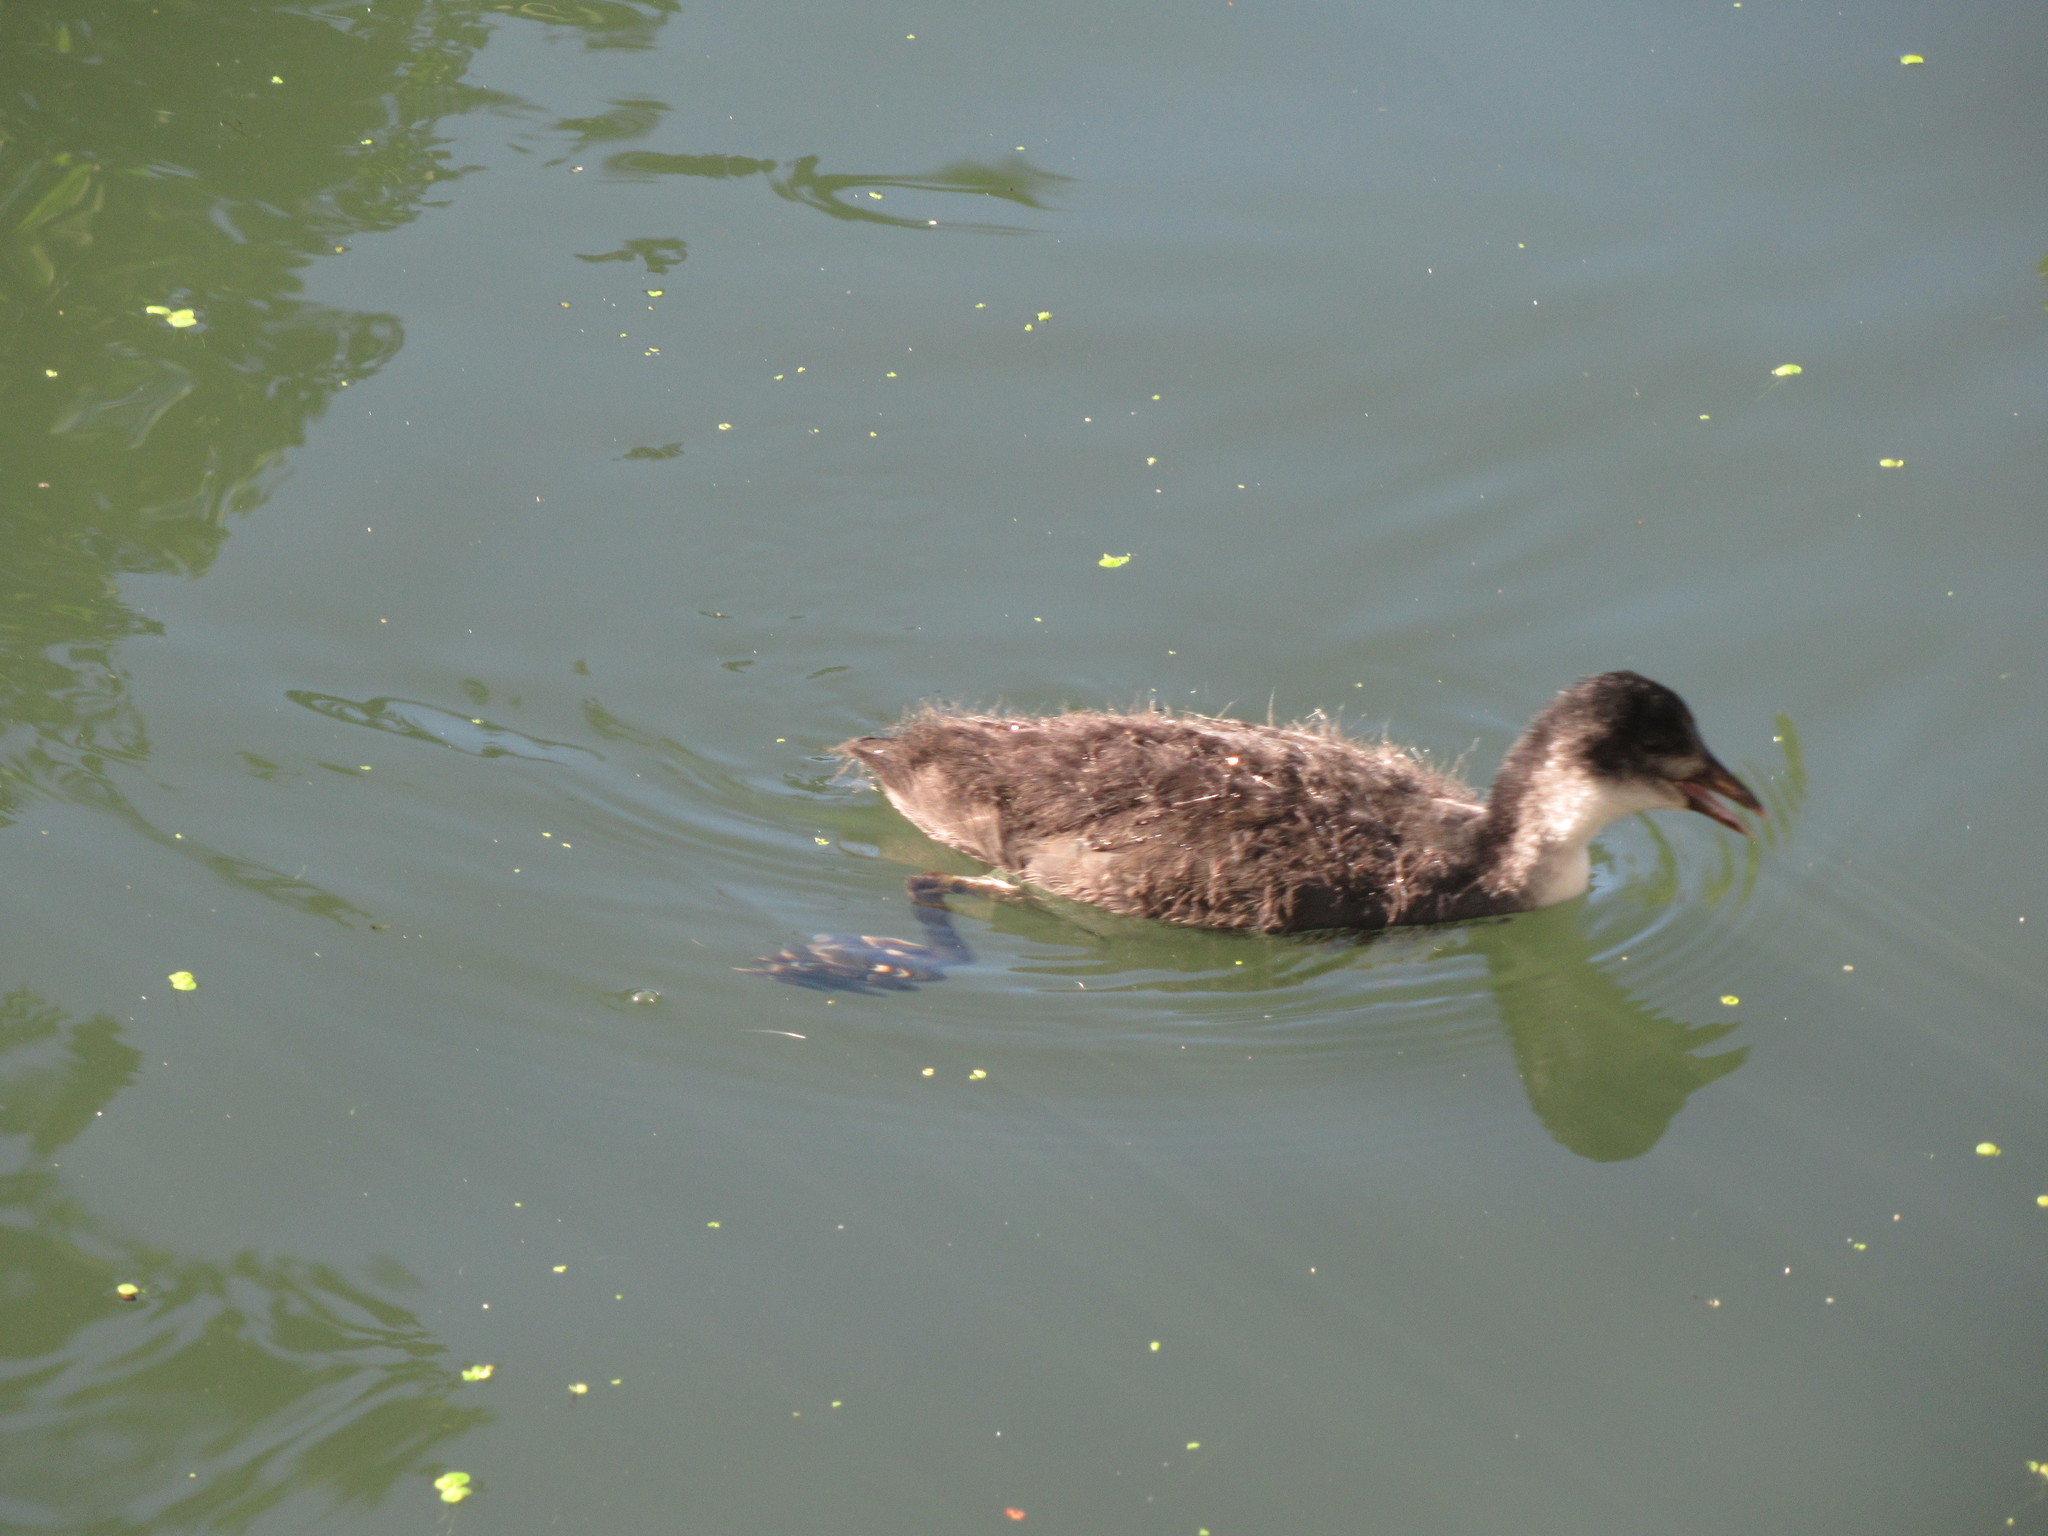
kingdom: Animalia
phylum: Chordata
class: Aves
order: Gruiformes
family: Rallidae
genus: Fulica
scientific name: Fulica atra
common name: Eurasian coot
